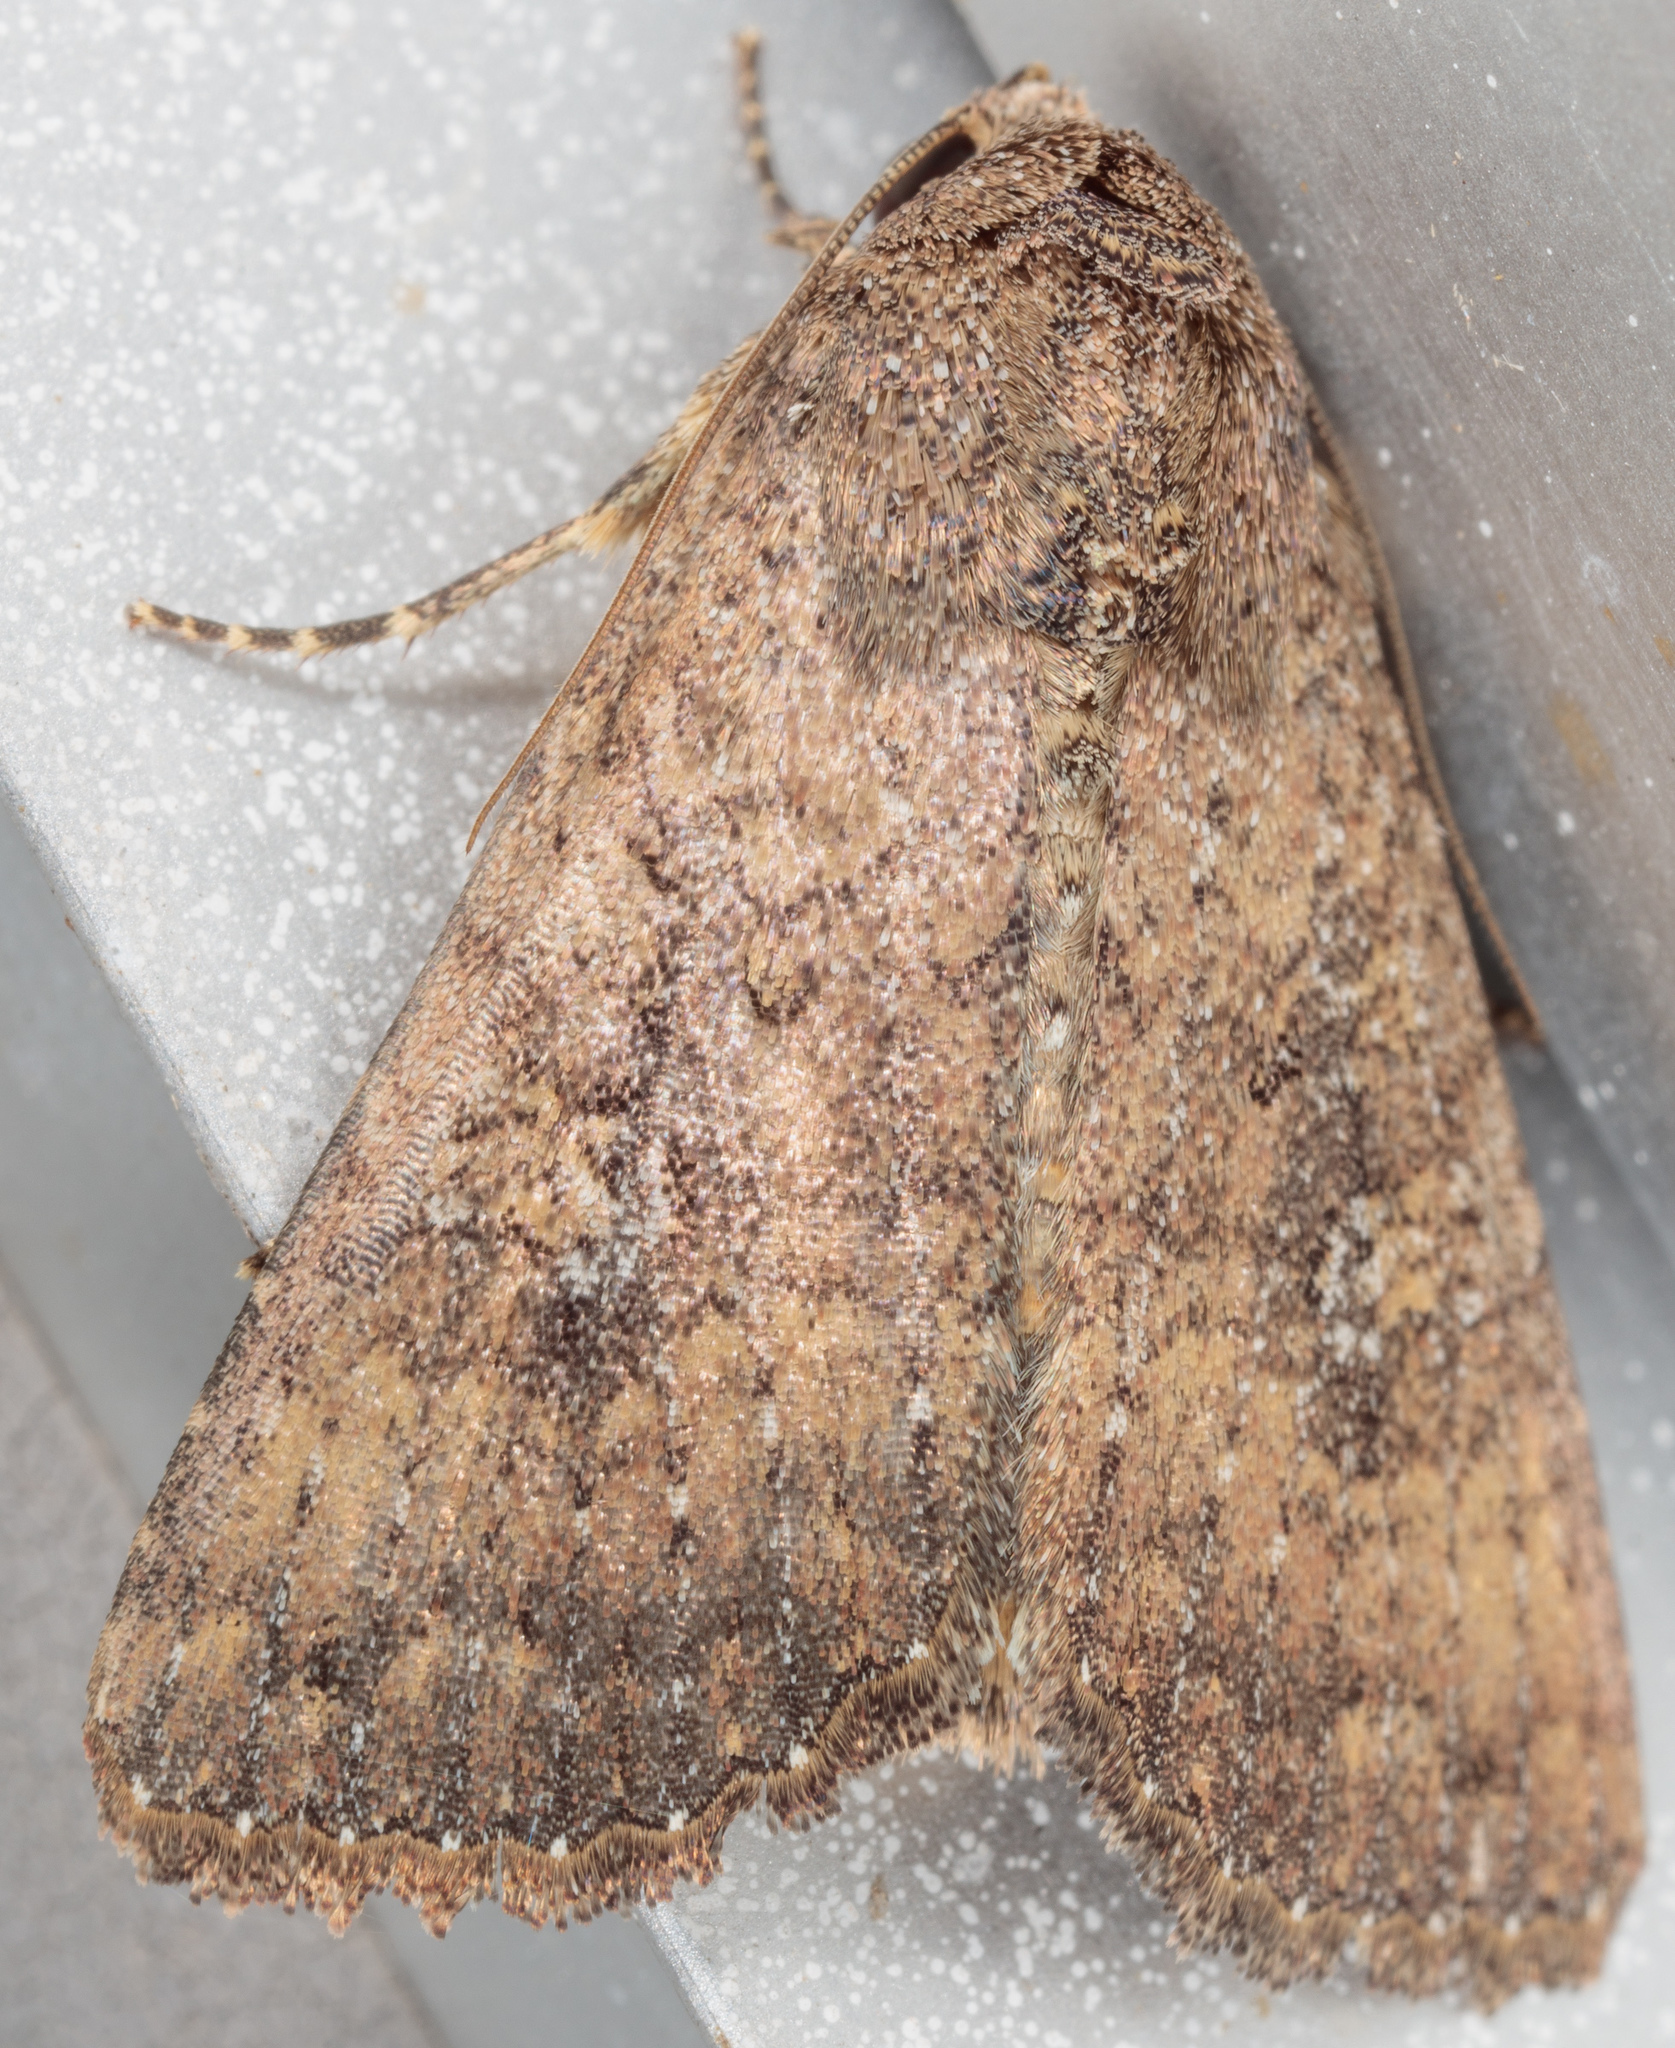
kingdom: Animalia
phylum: Arthropoda
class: Insecta
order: Lepidoptera
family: Noctuidae
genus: Condica
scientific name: Condica sutor
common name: Cobbler moth
